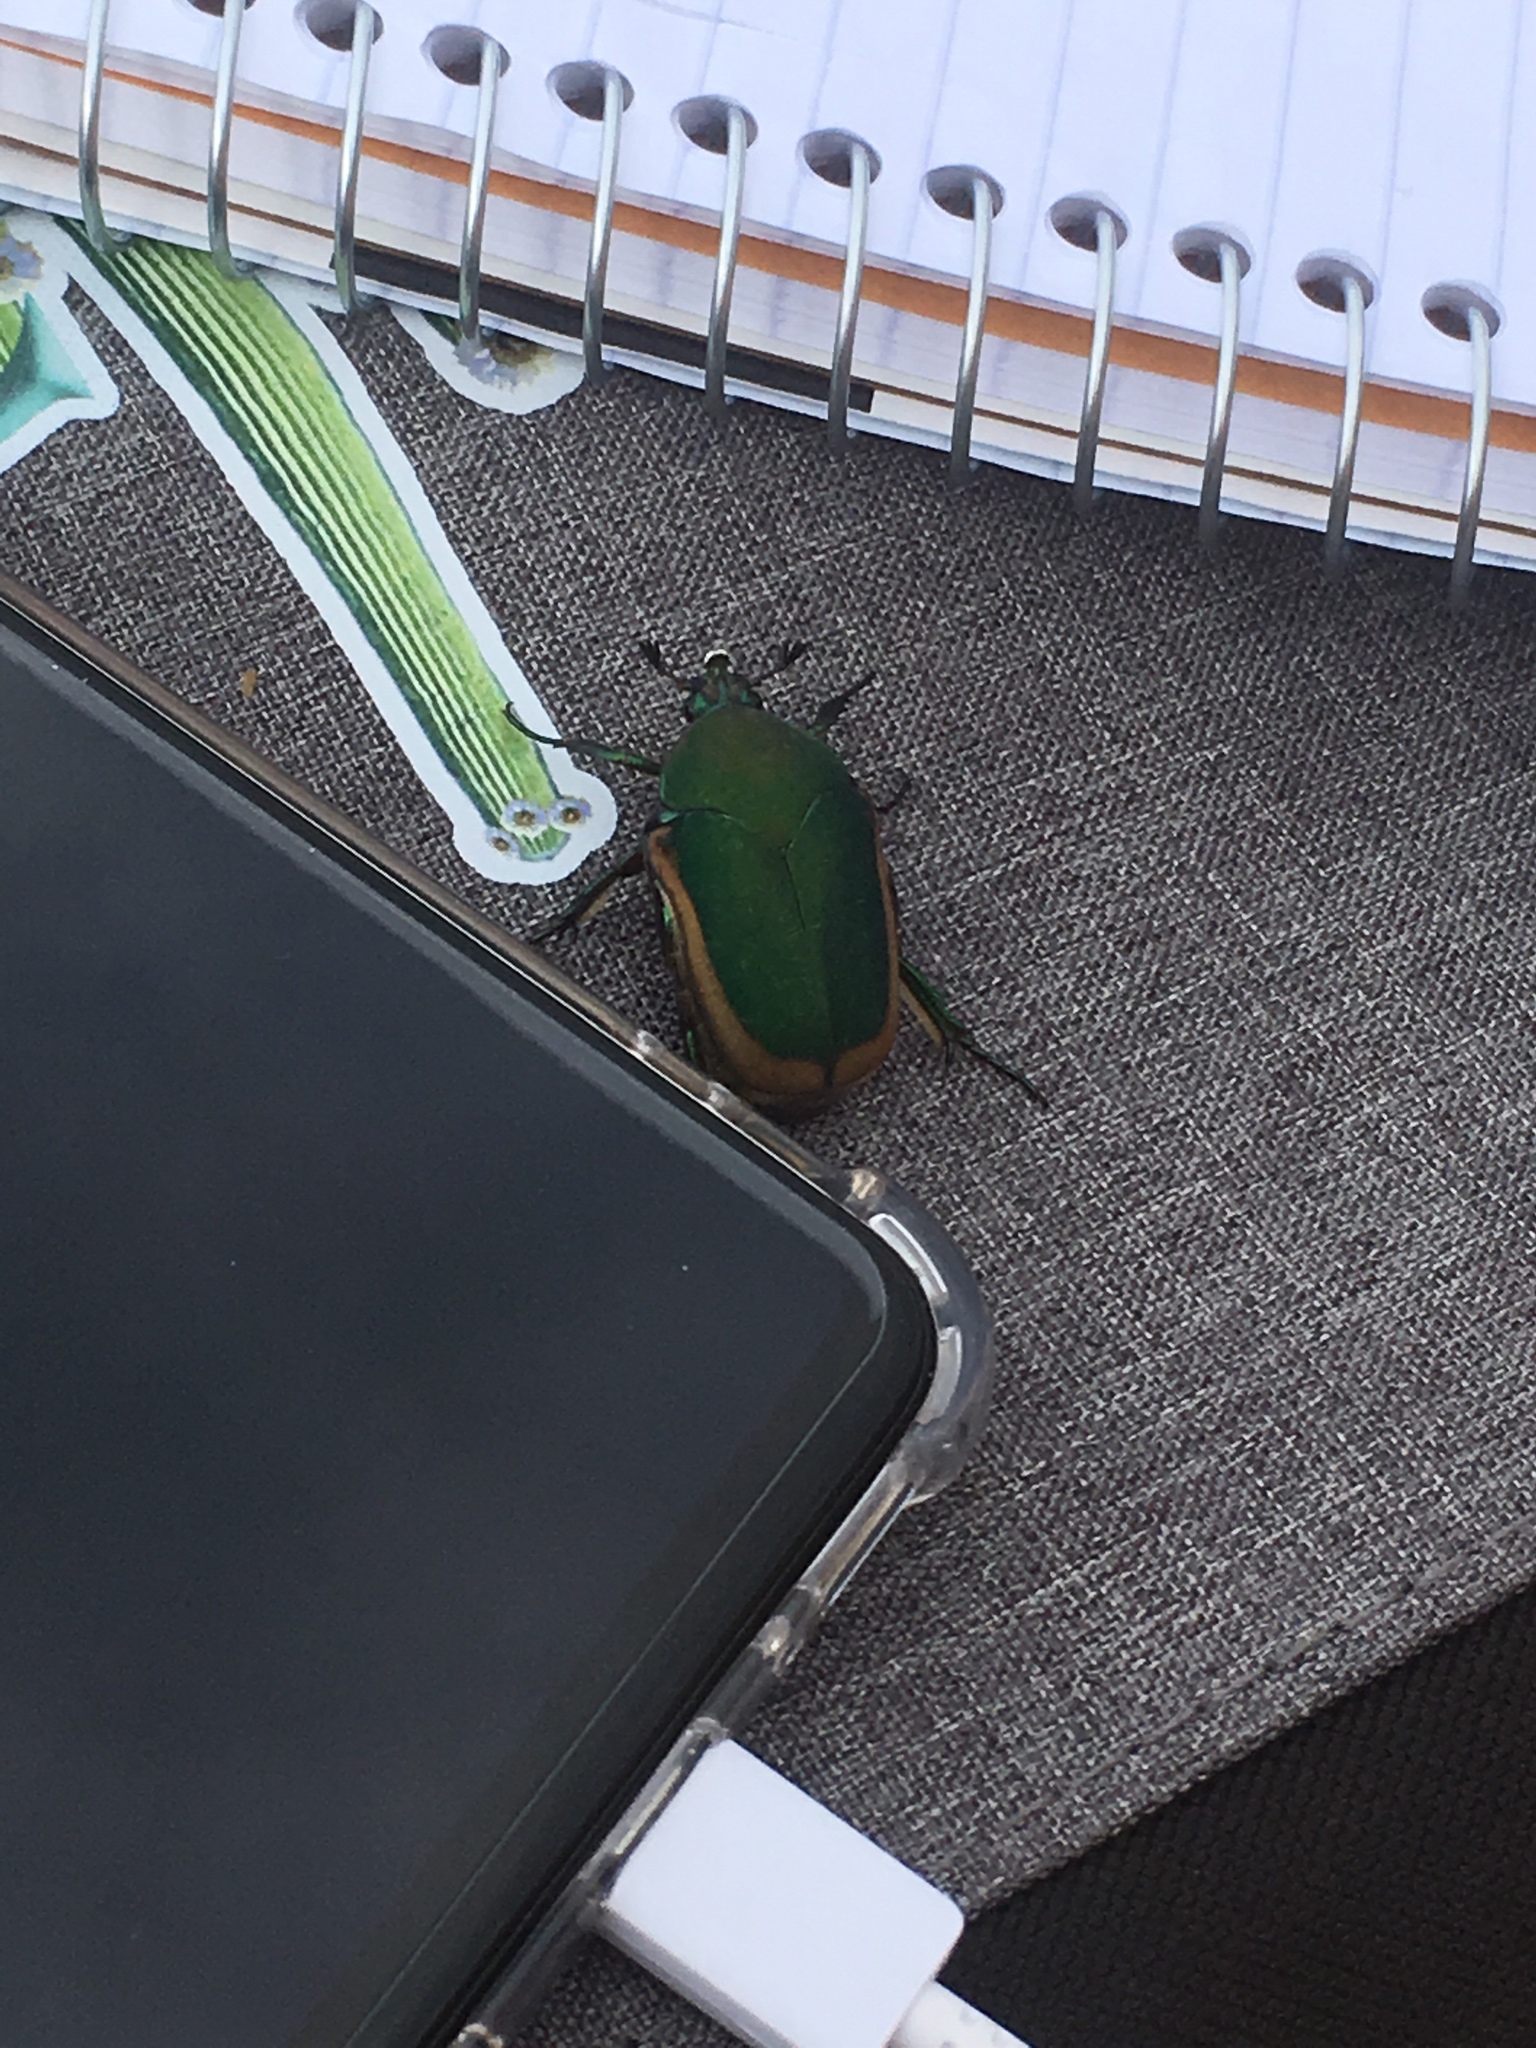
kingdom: Animalia
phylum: Arthropoda
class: Insecta
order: Coleoptera
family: Scarabaeidae
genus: Cotinis
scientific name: Cotinis mutabilis
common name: Figeater beetle
